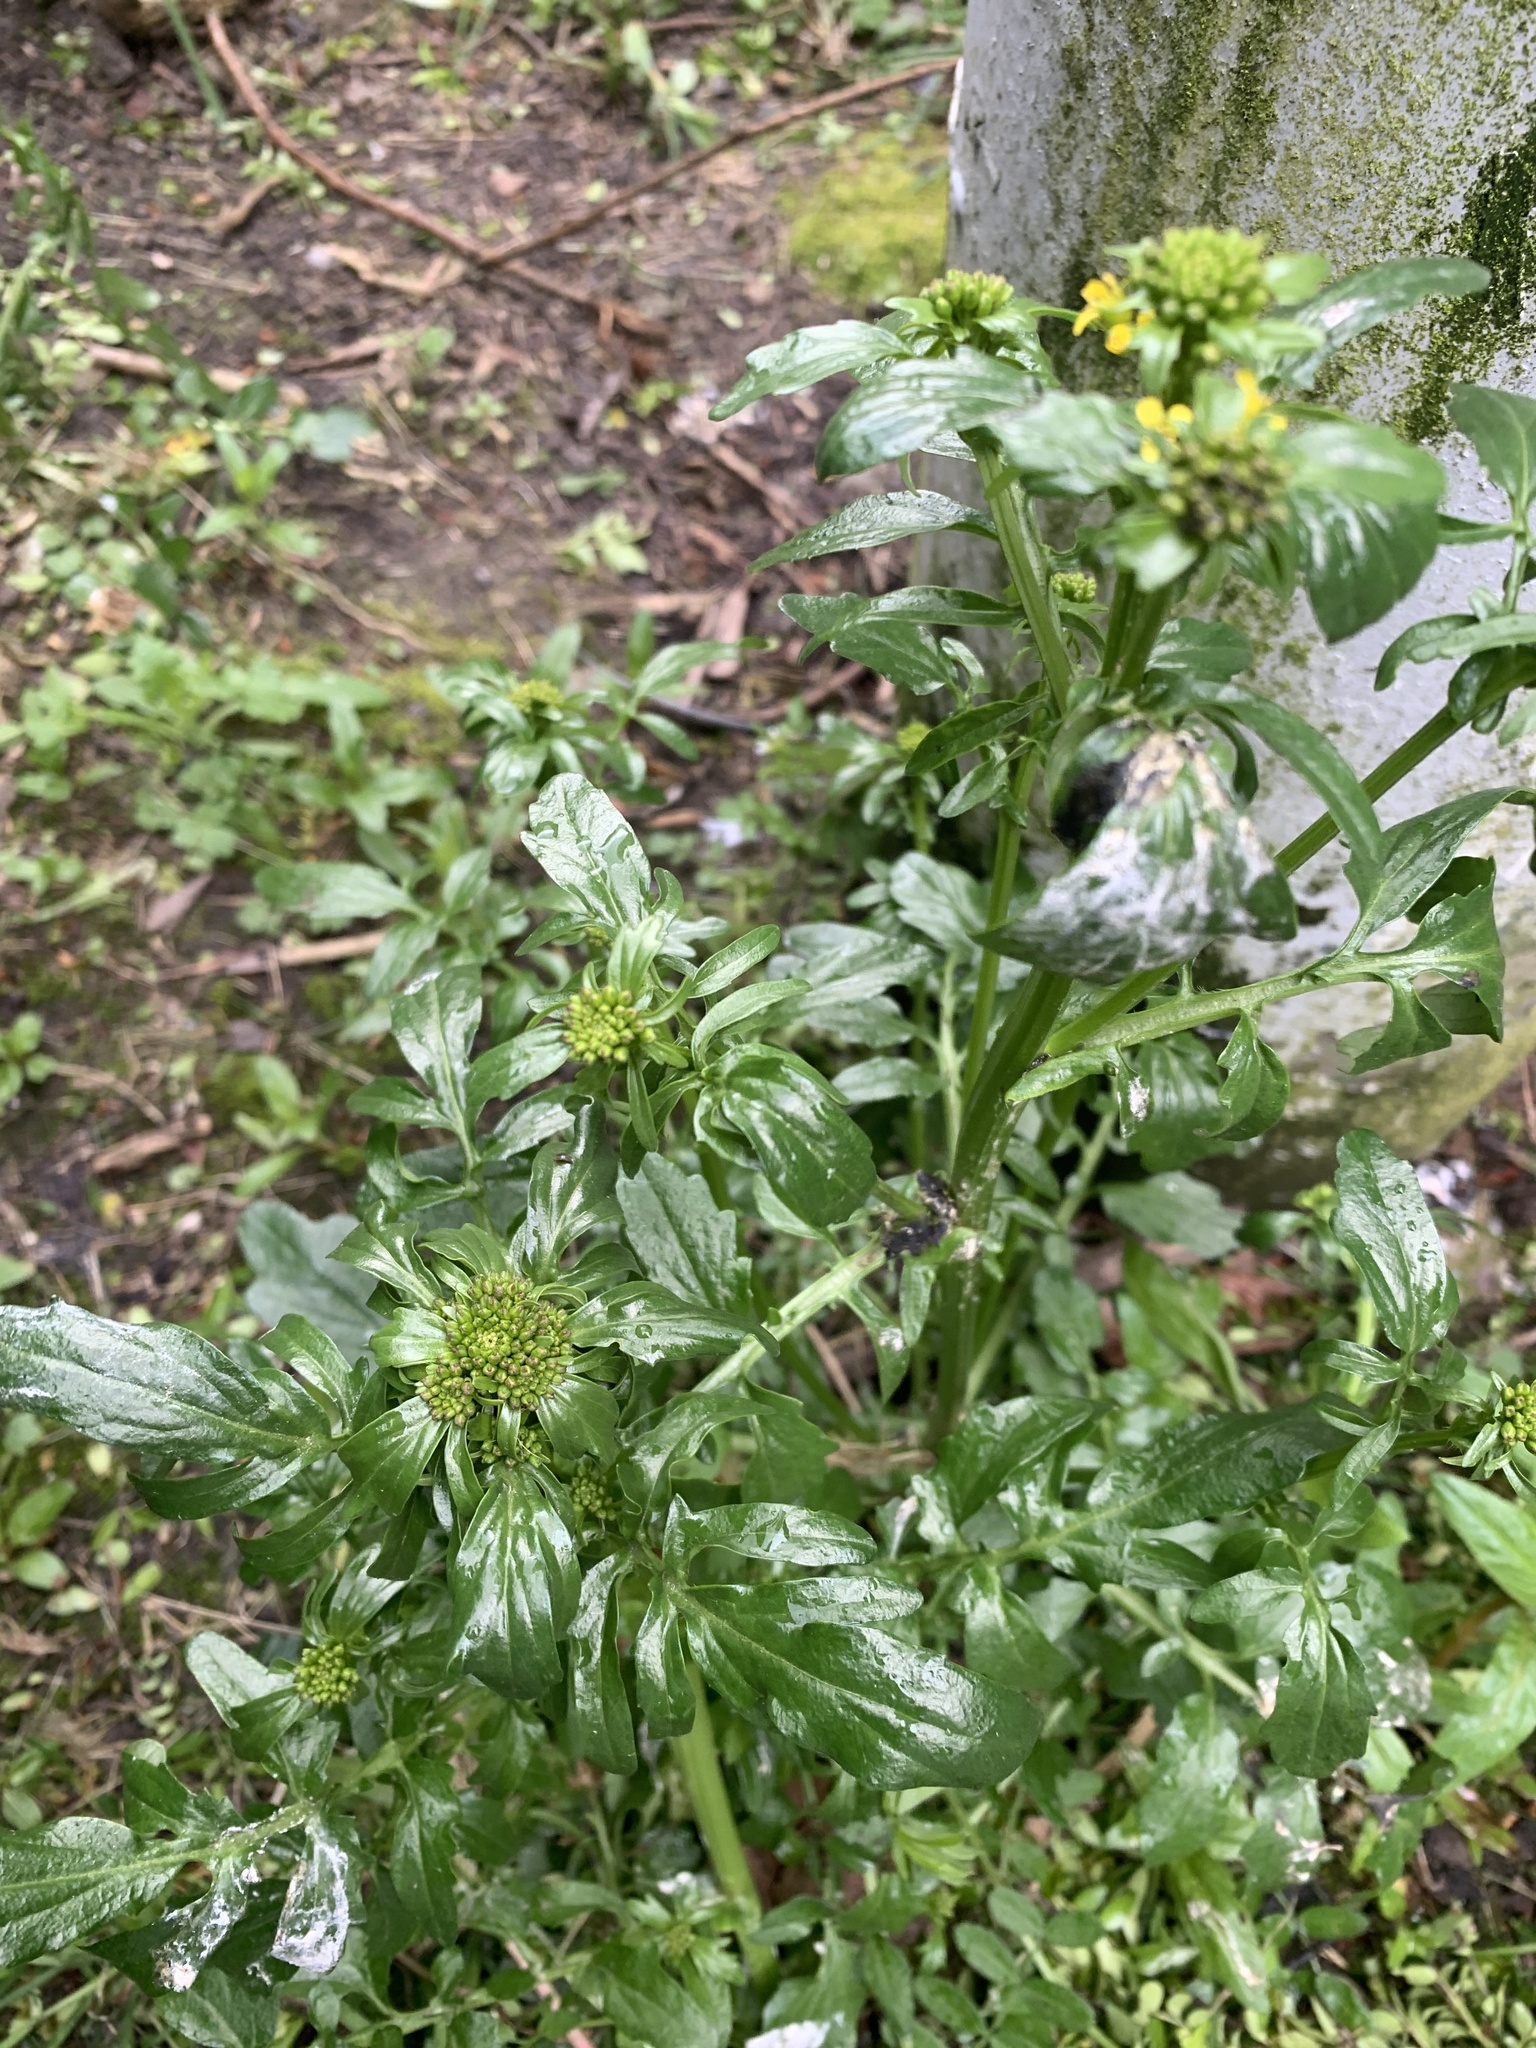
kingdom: Plantae
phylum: Tracheophyta
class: Magnoliopsida
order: Brassicales
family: Brassicaceae
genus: Barbarea
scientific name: Barbarea vulgaris
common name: Cressy-greens
